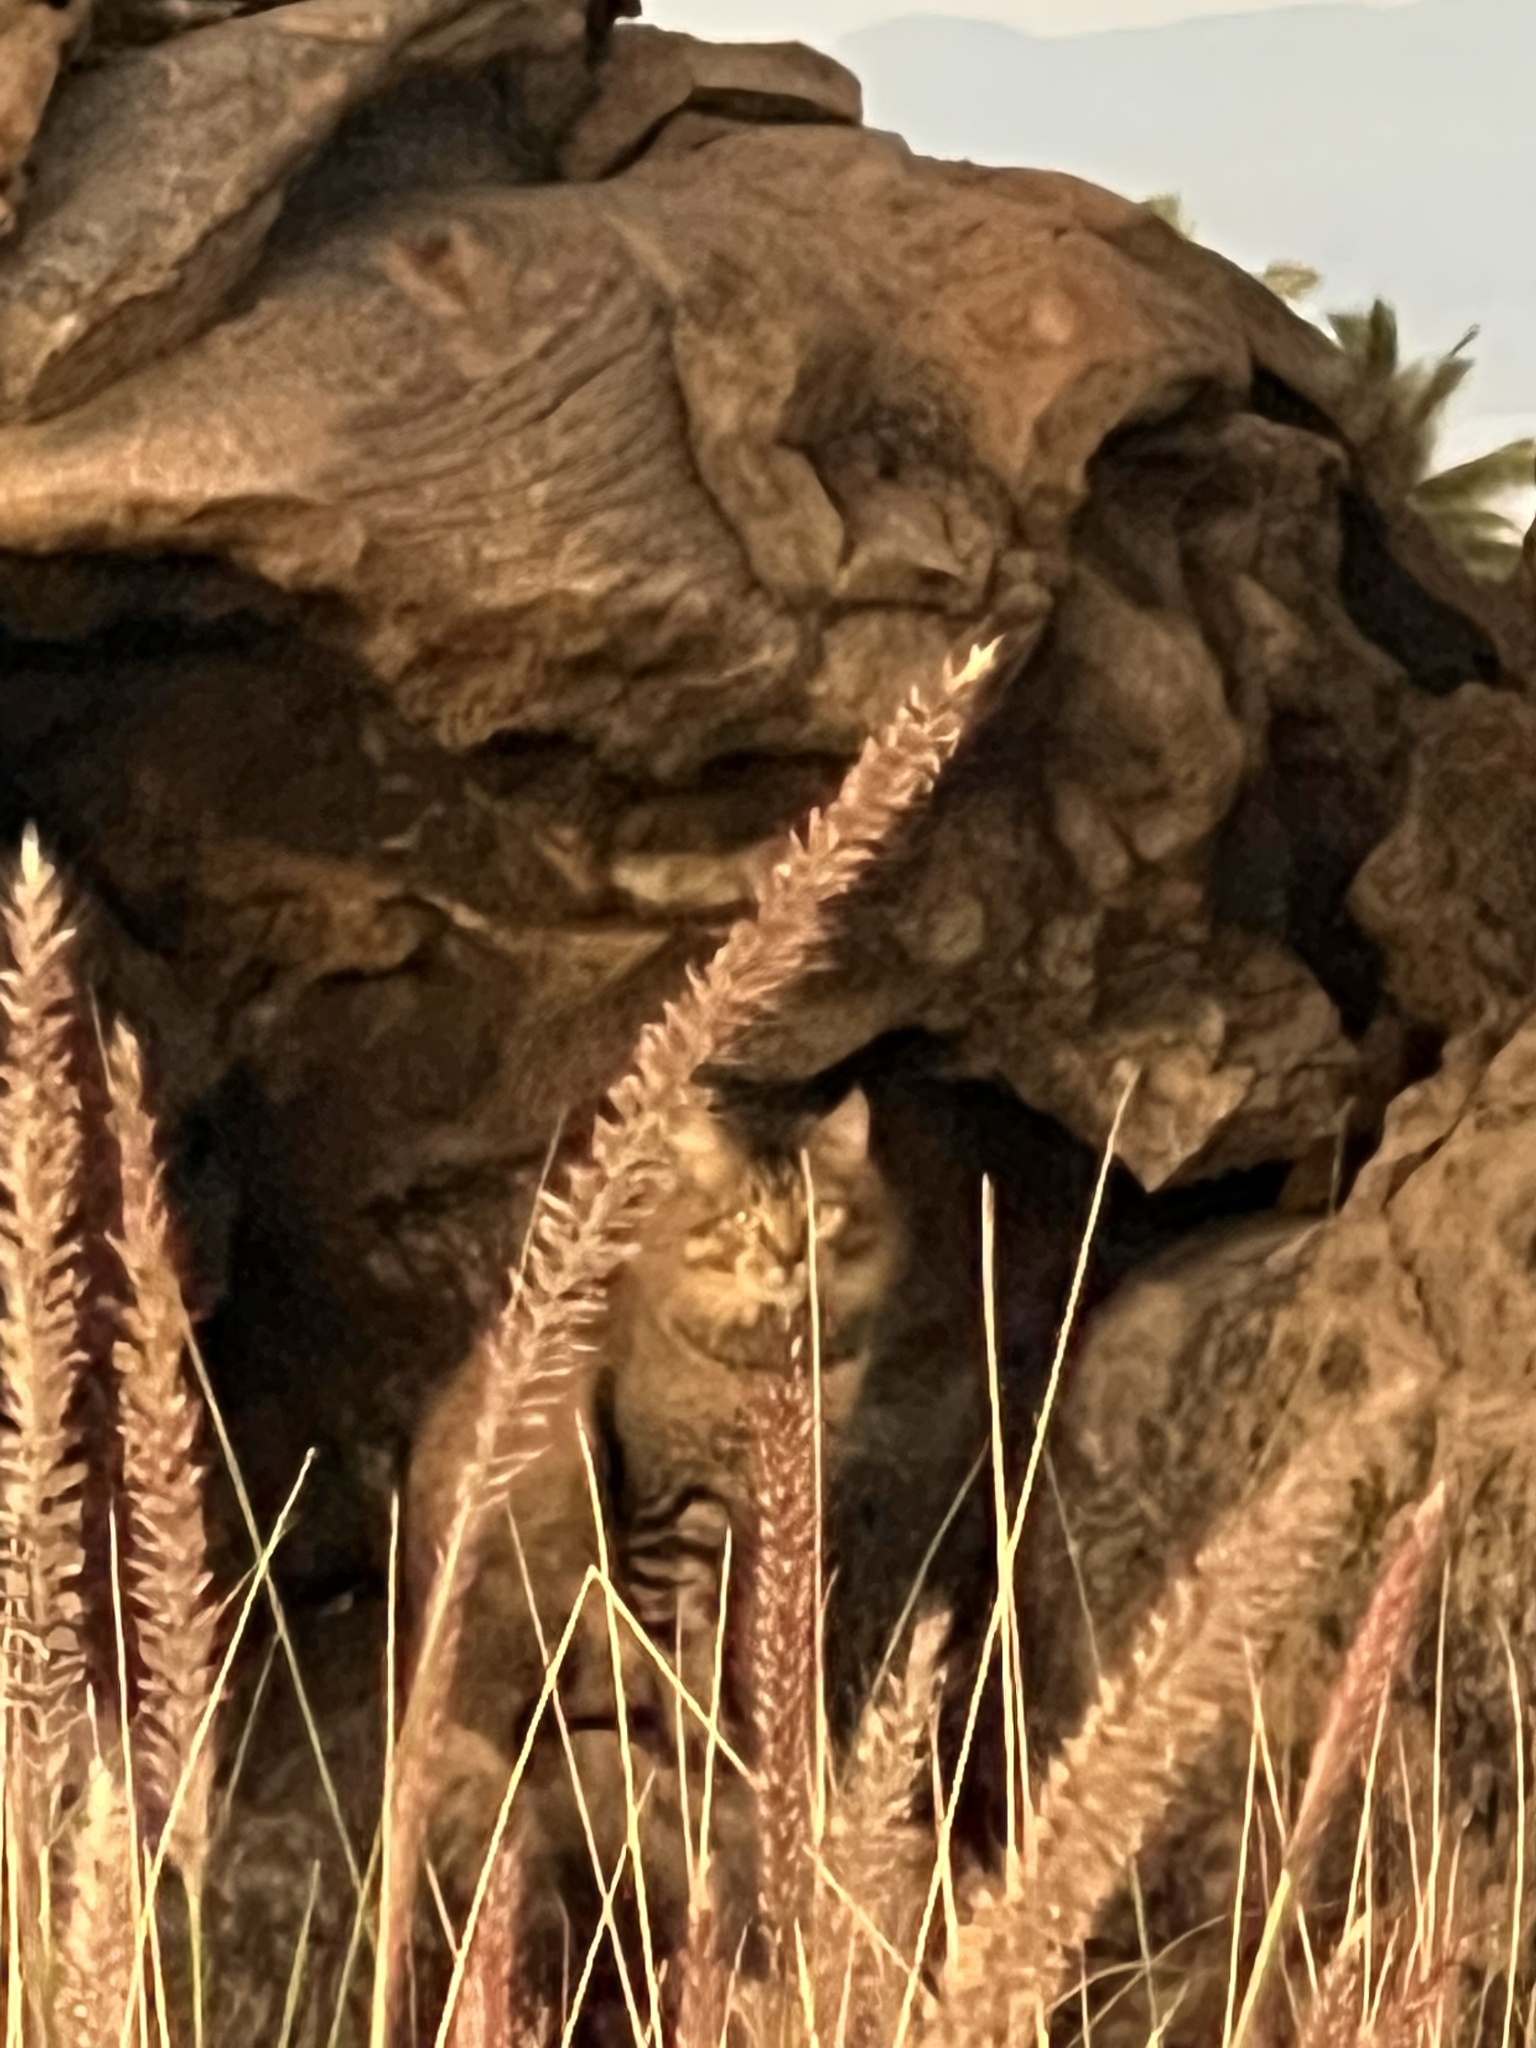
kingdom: Animalia
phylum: Chordata
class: Mammalia
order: Carnivora
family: Felidae
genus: Felis
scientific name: Felis catus
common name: Domestic cat
